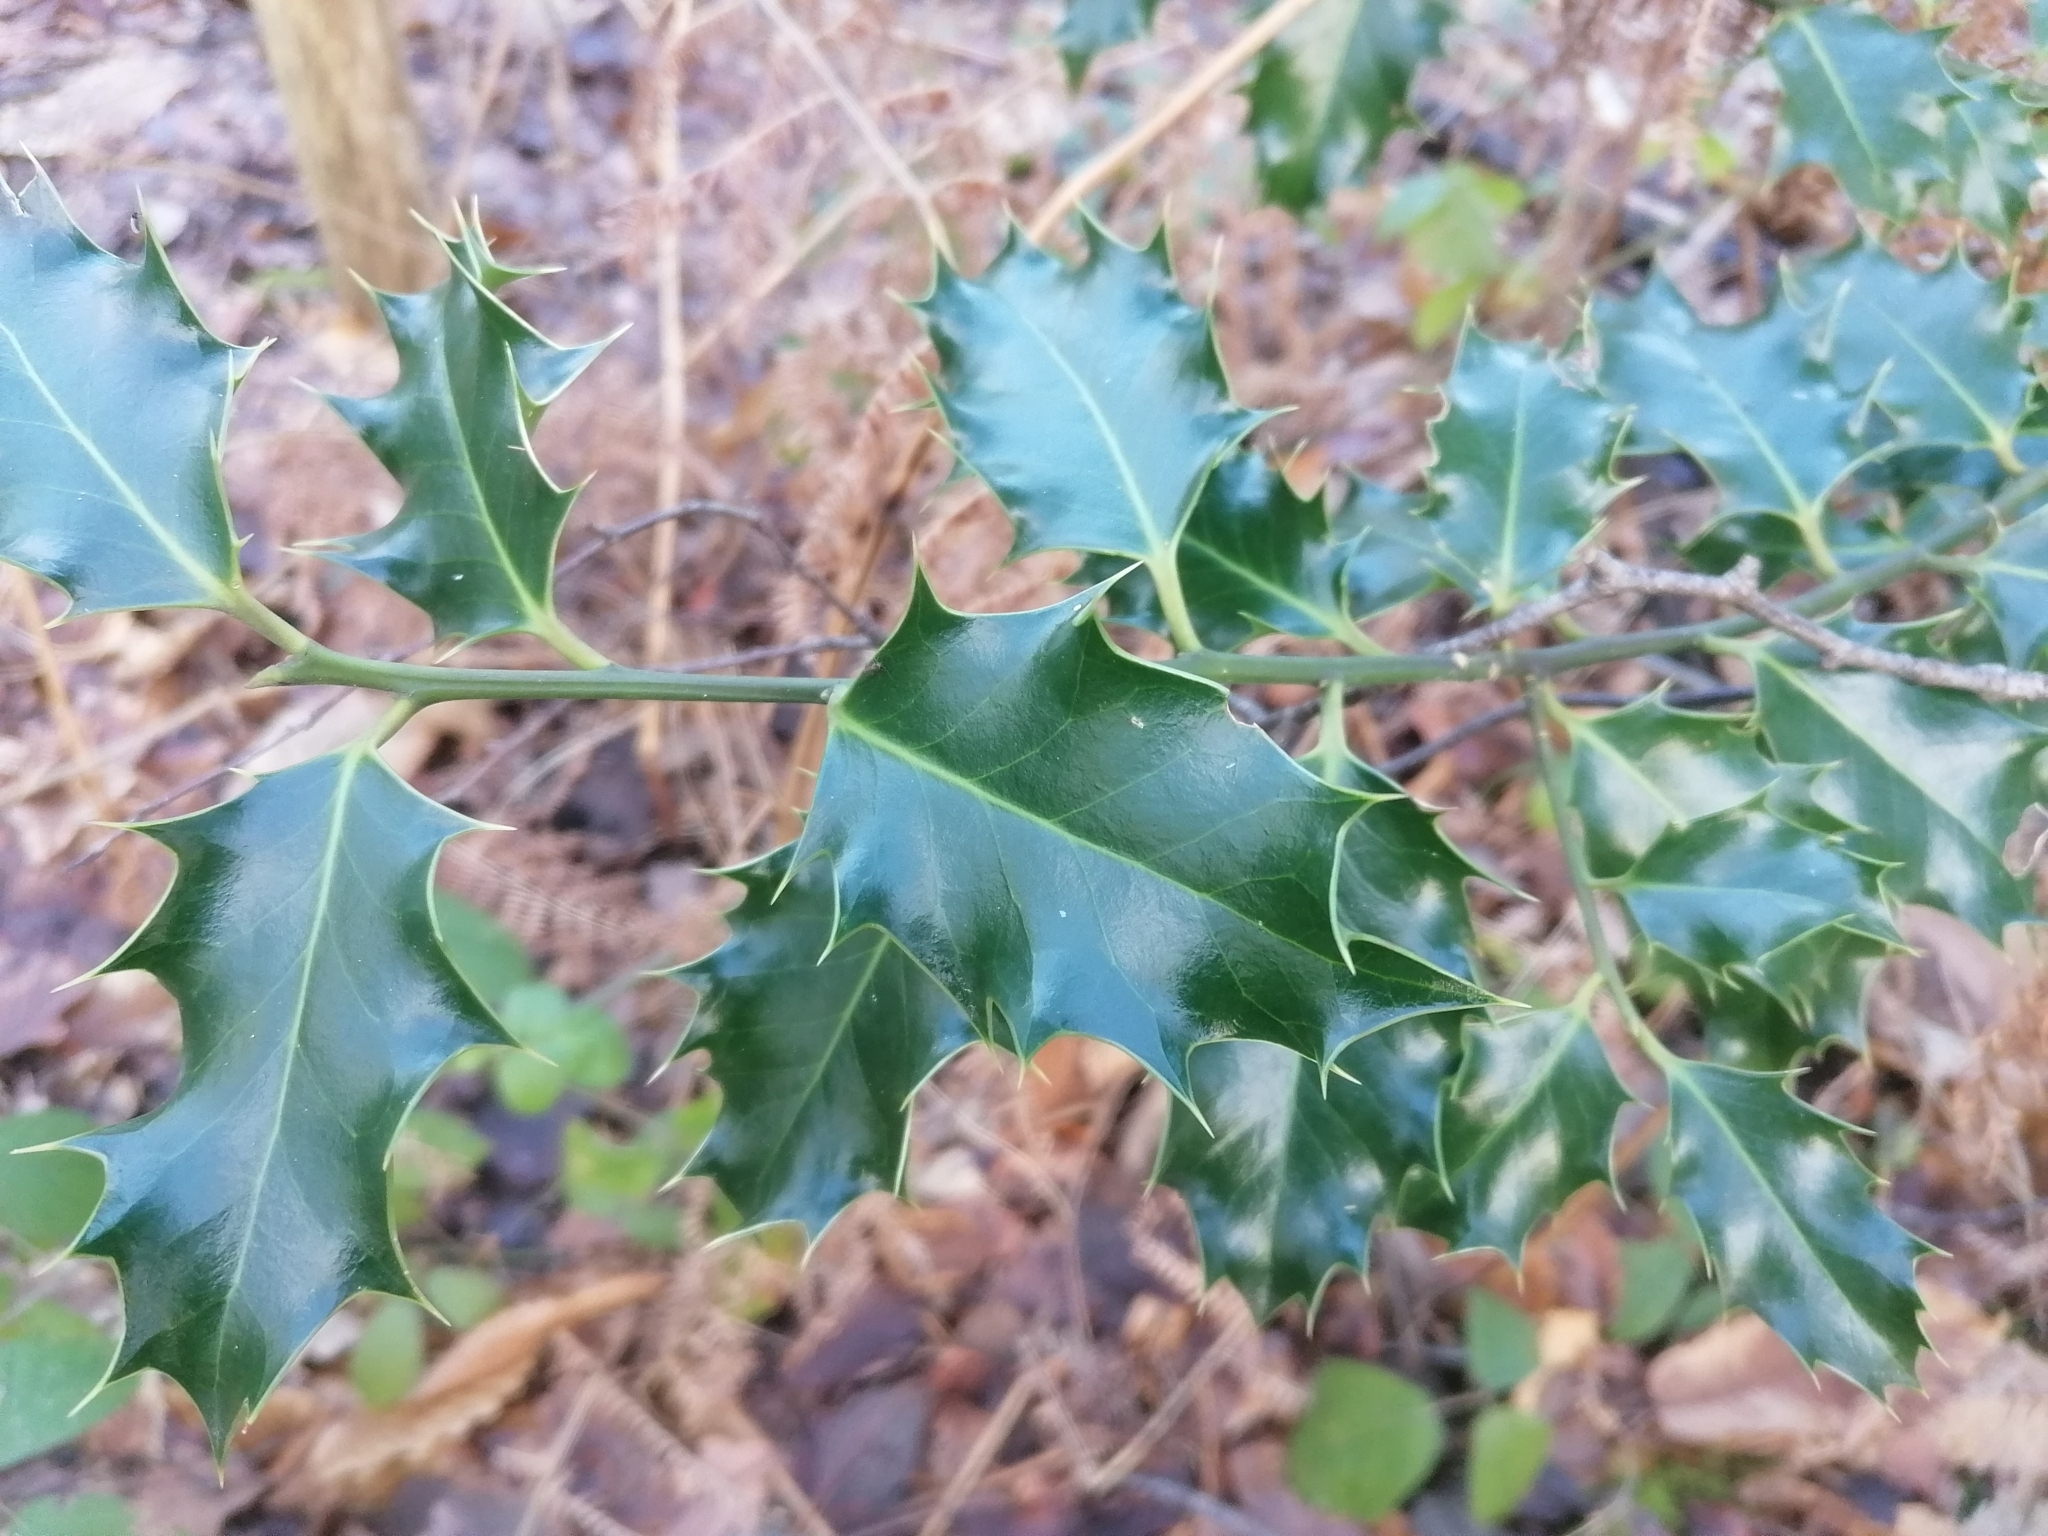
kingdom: Plantae
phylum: Tracheophyta
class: Magnoliopsida
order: Aquifoliales
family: Aquifoliaceae
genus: Ilex
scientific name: Ilex aquifolium
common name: English holly
